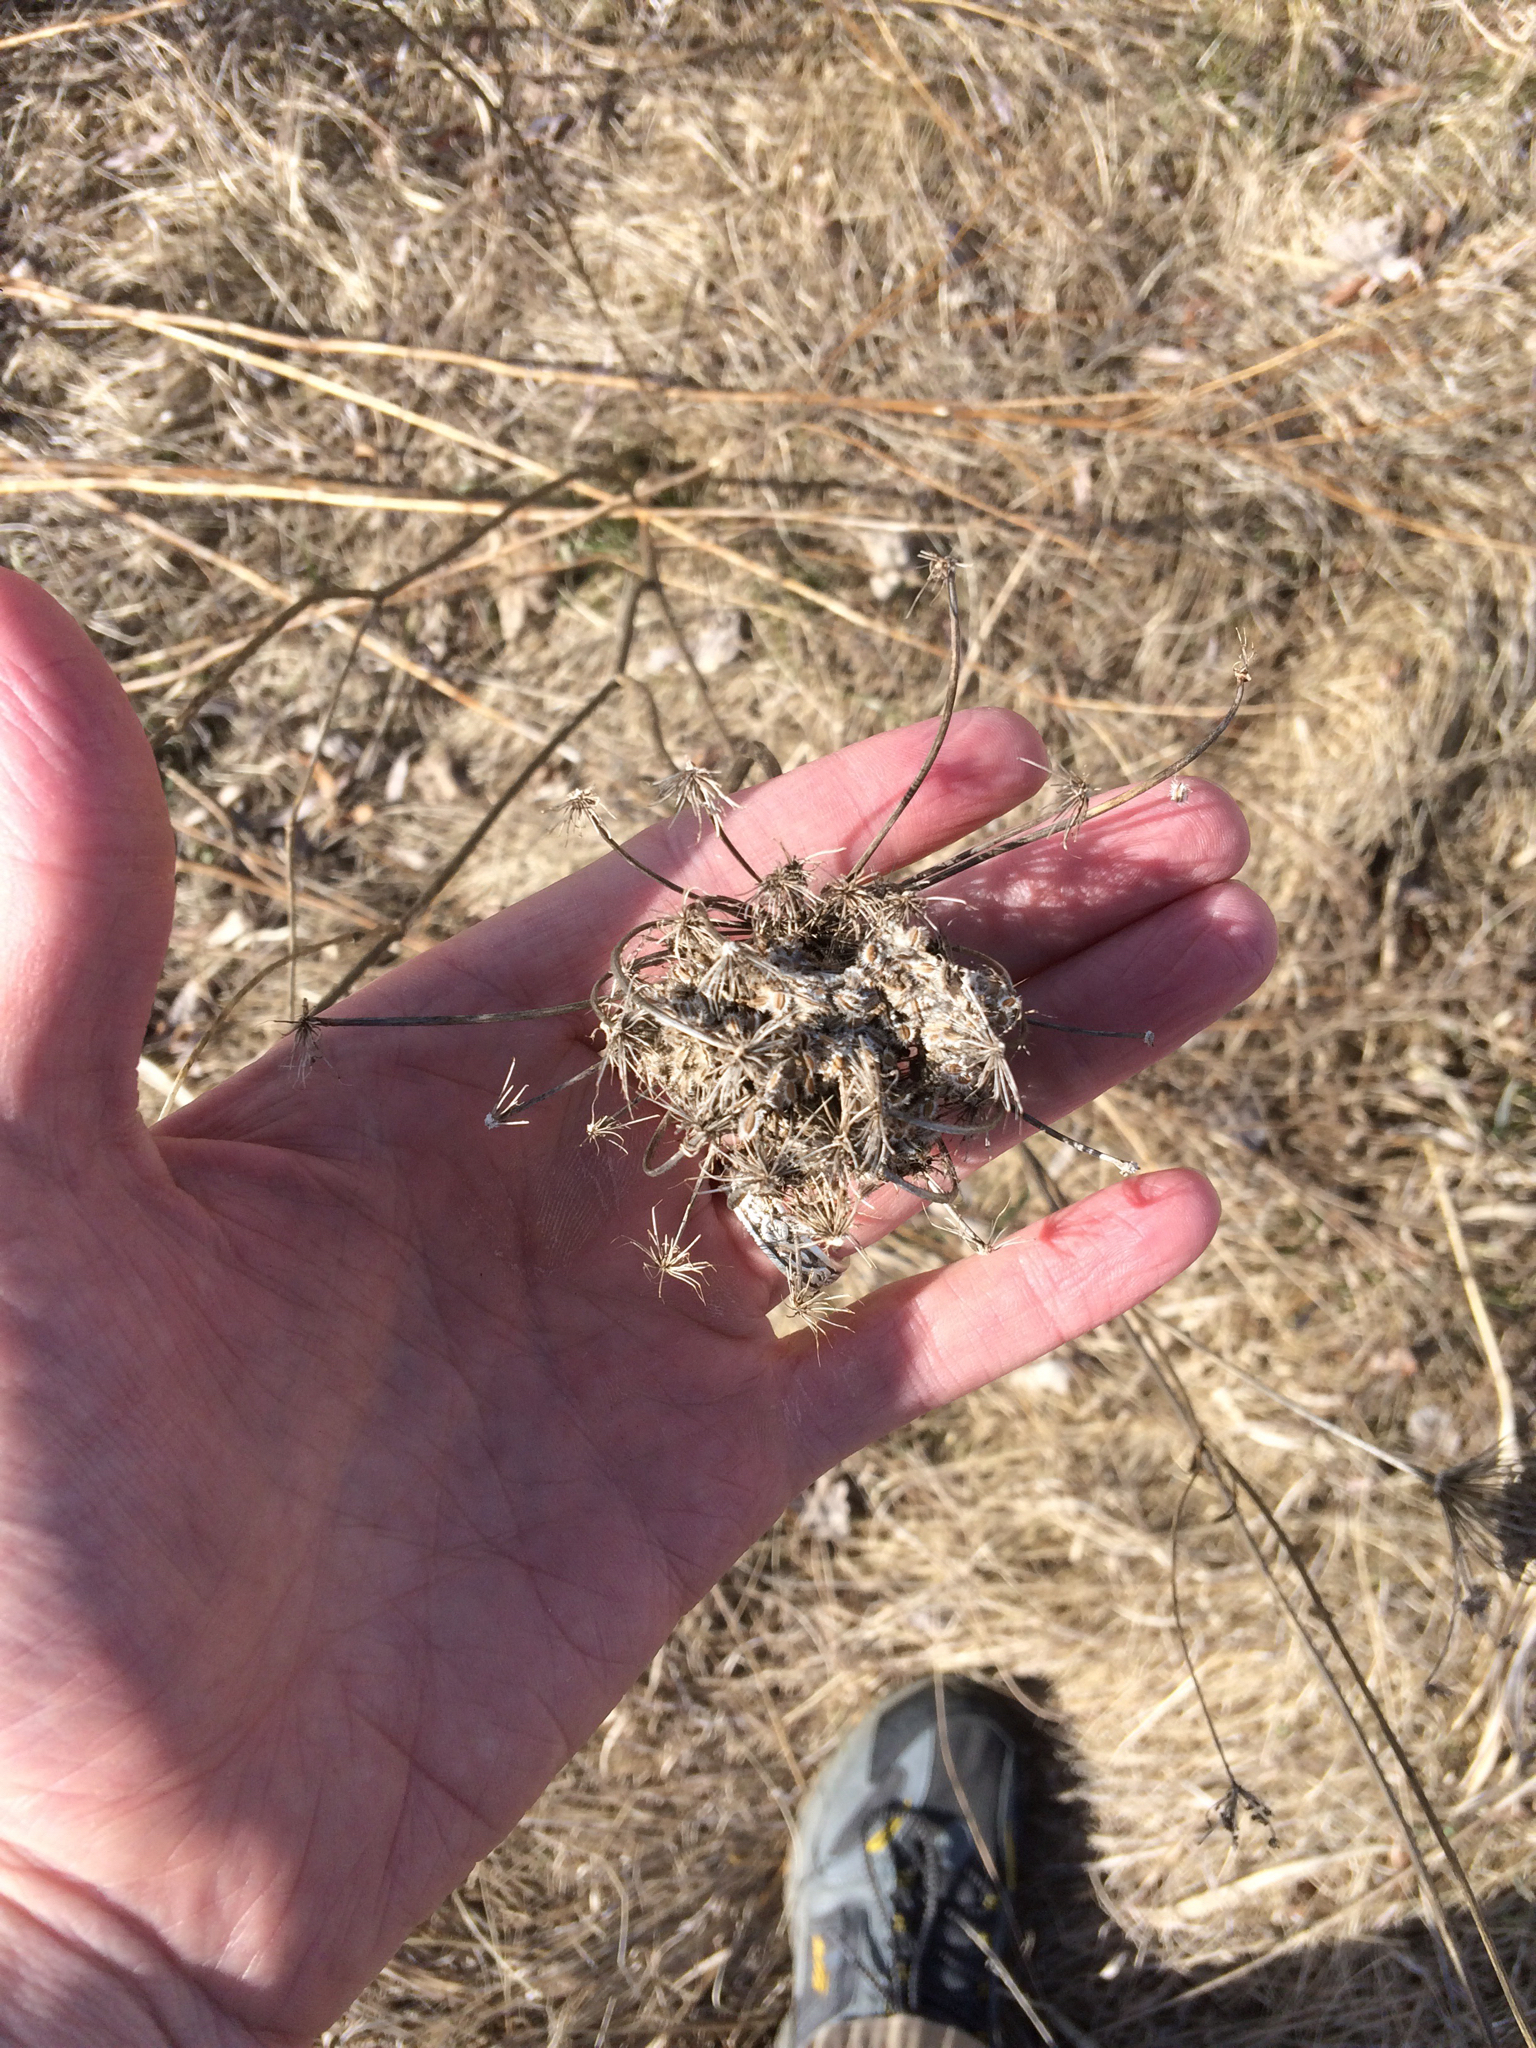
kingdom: Plantae
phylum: Tracheophyta
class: Magnoliopsida
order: Apiales
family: Apiaceae
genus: Daucus
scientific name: Daucus carota
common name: Wild carrot
